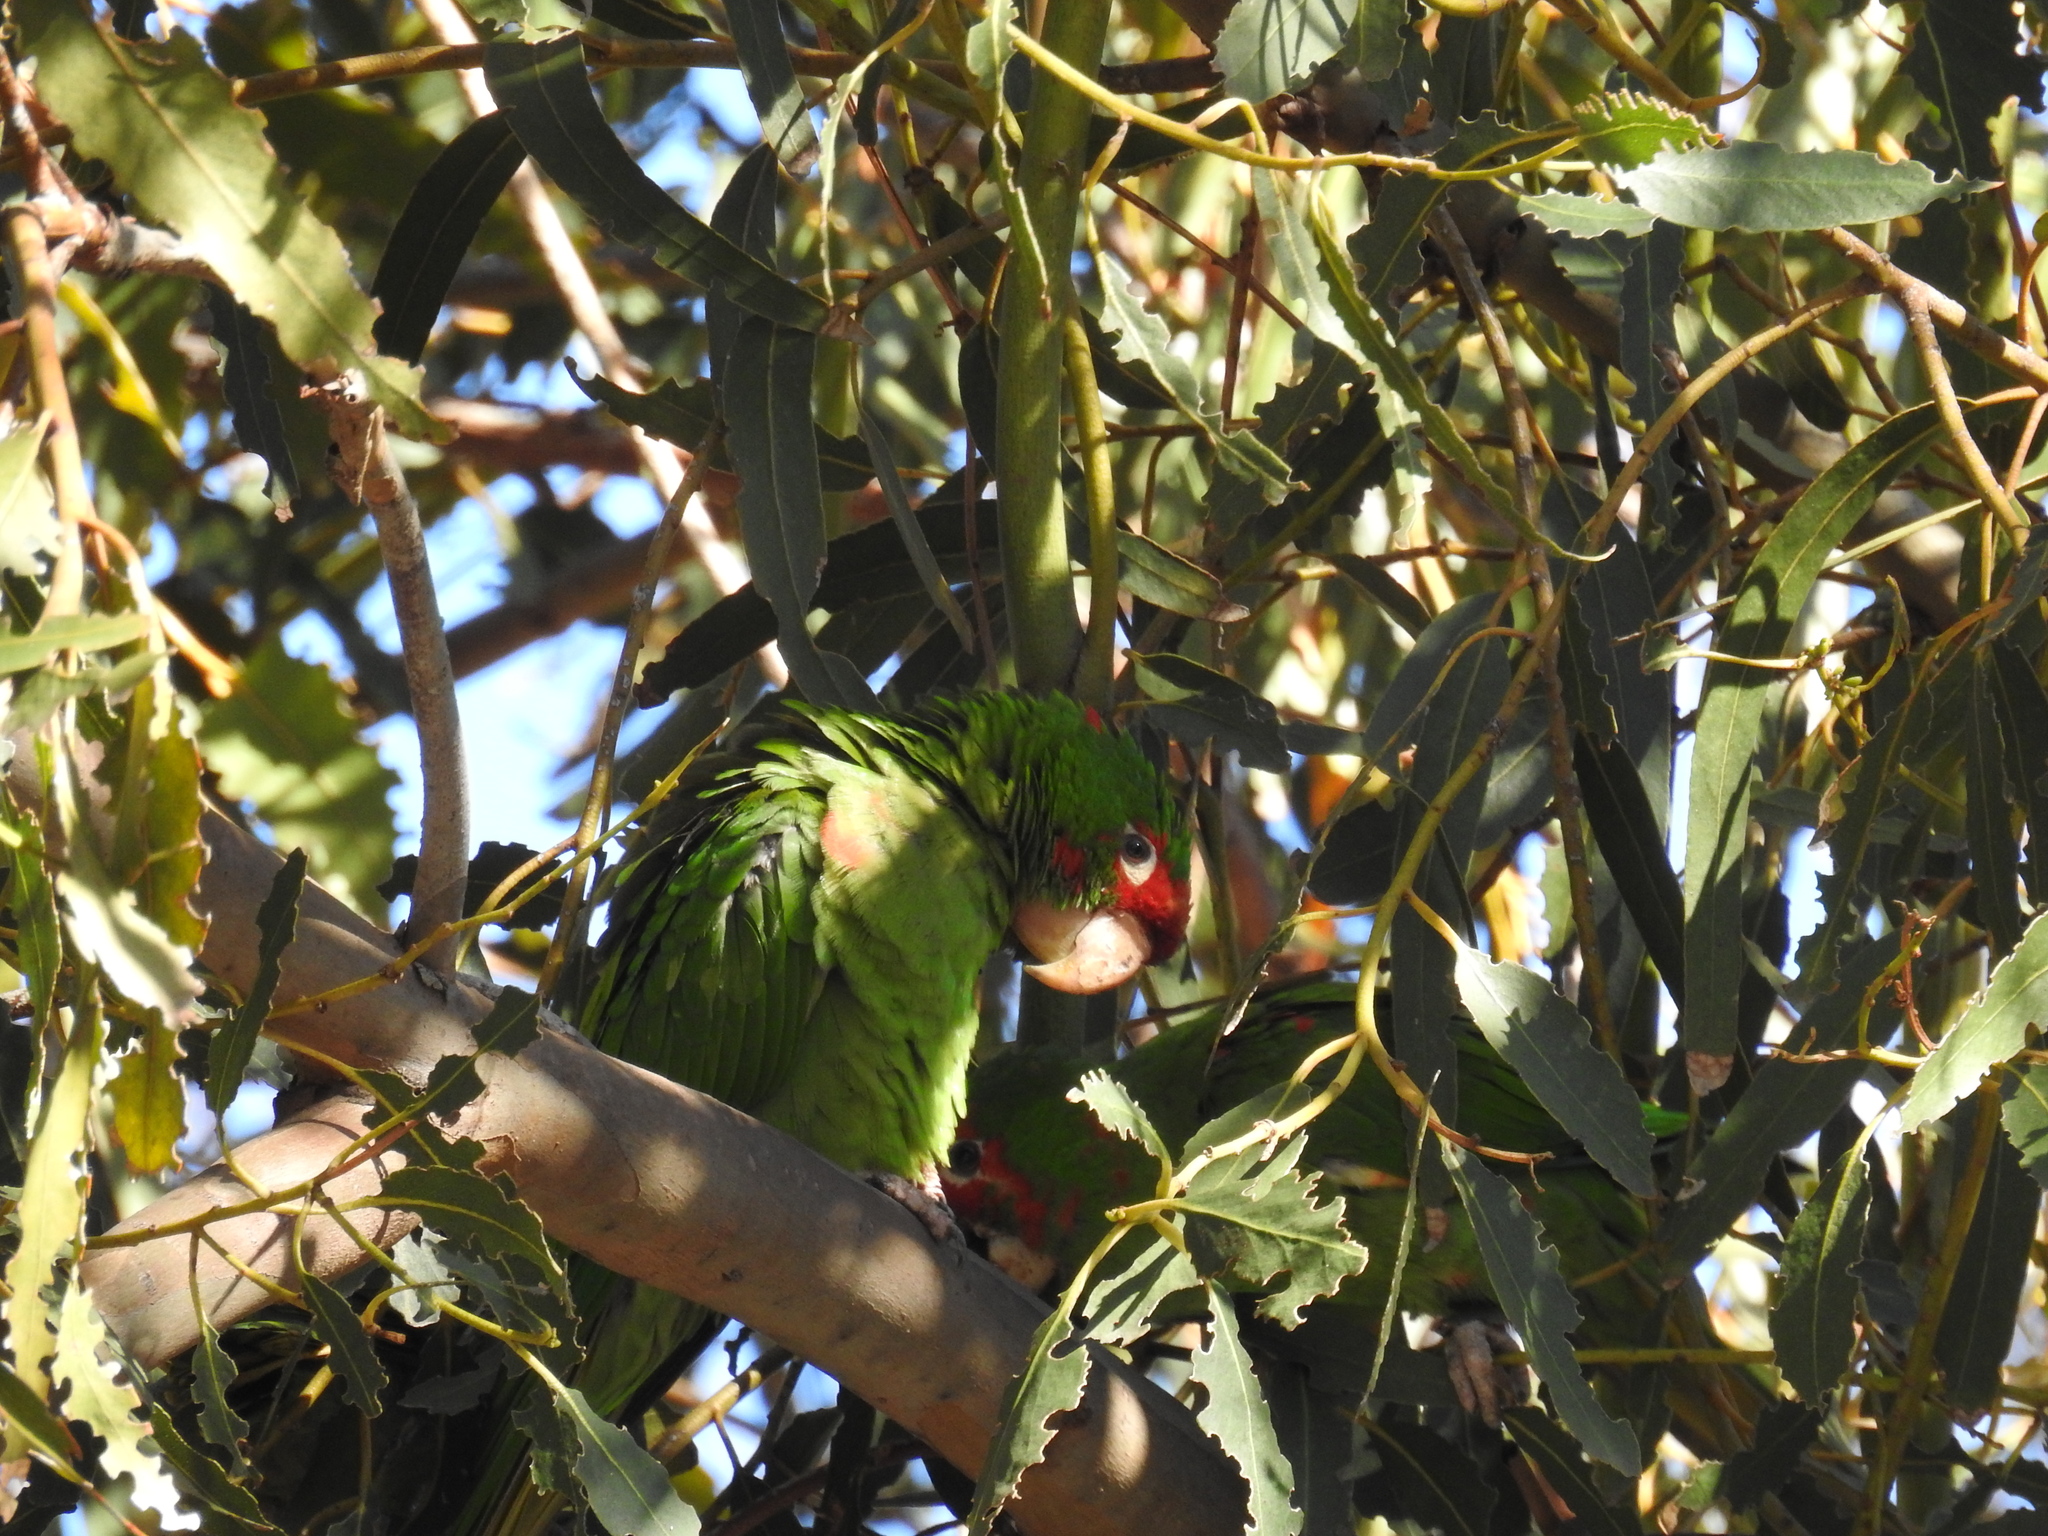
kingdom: Animalia
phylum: Chordata
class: Aves
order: Psittaciformes
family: Psittacidae
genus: Aratinga
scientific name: Aratinga mitrata
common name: Mitred parakeet
